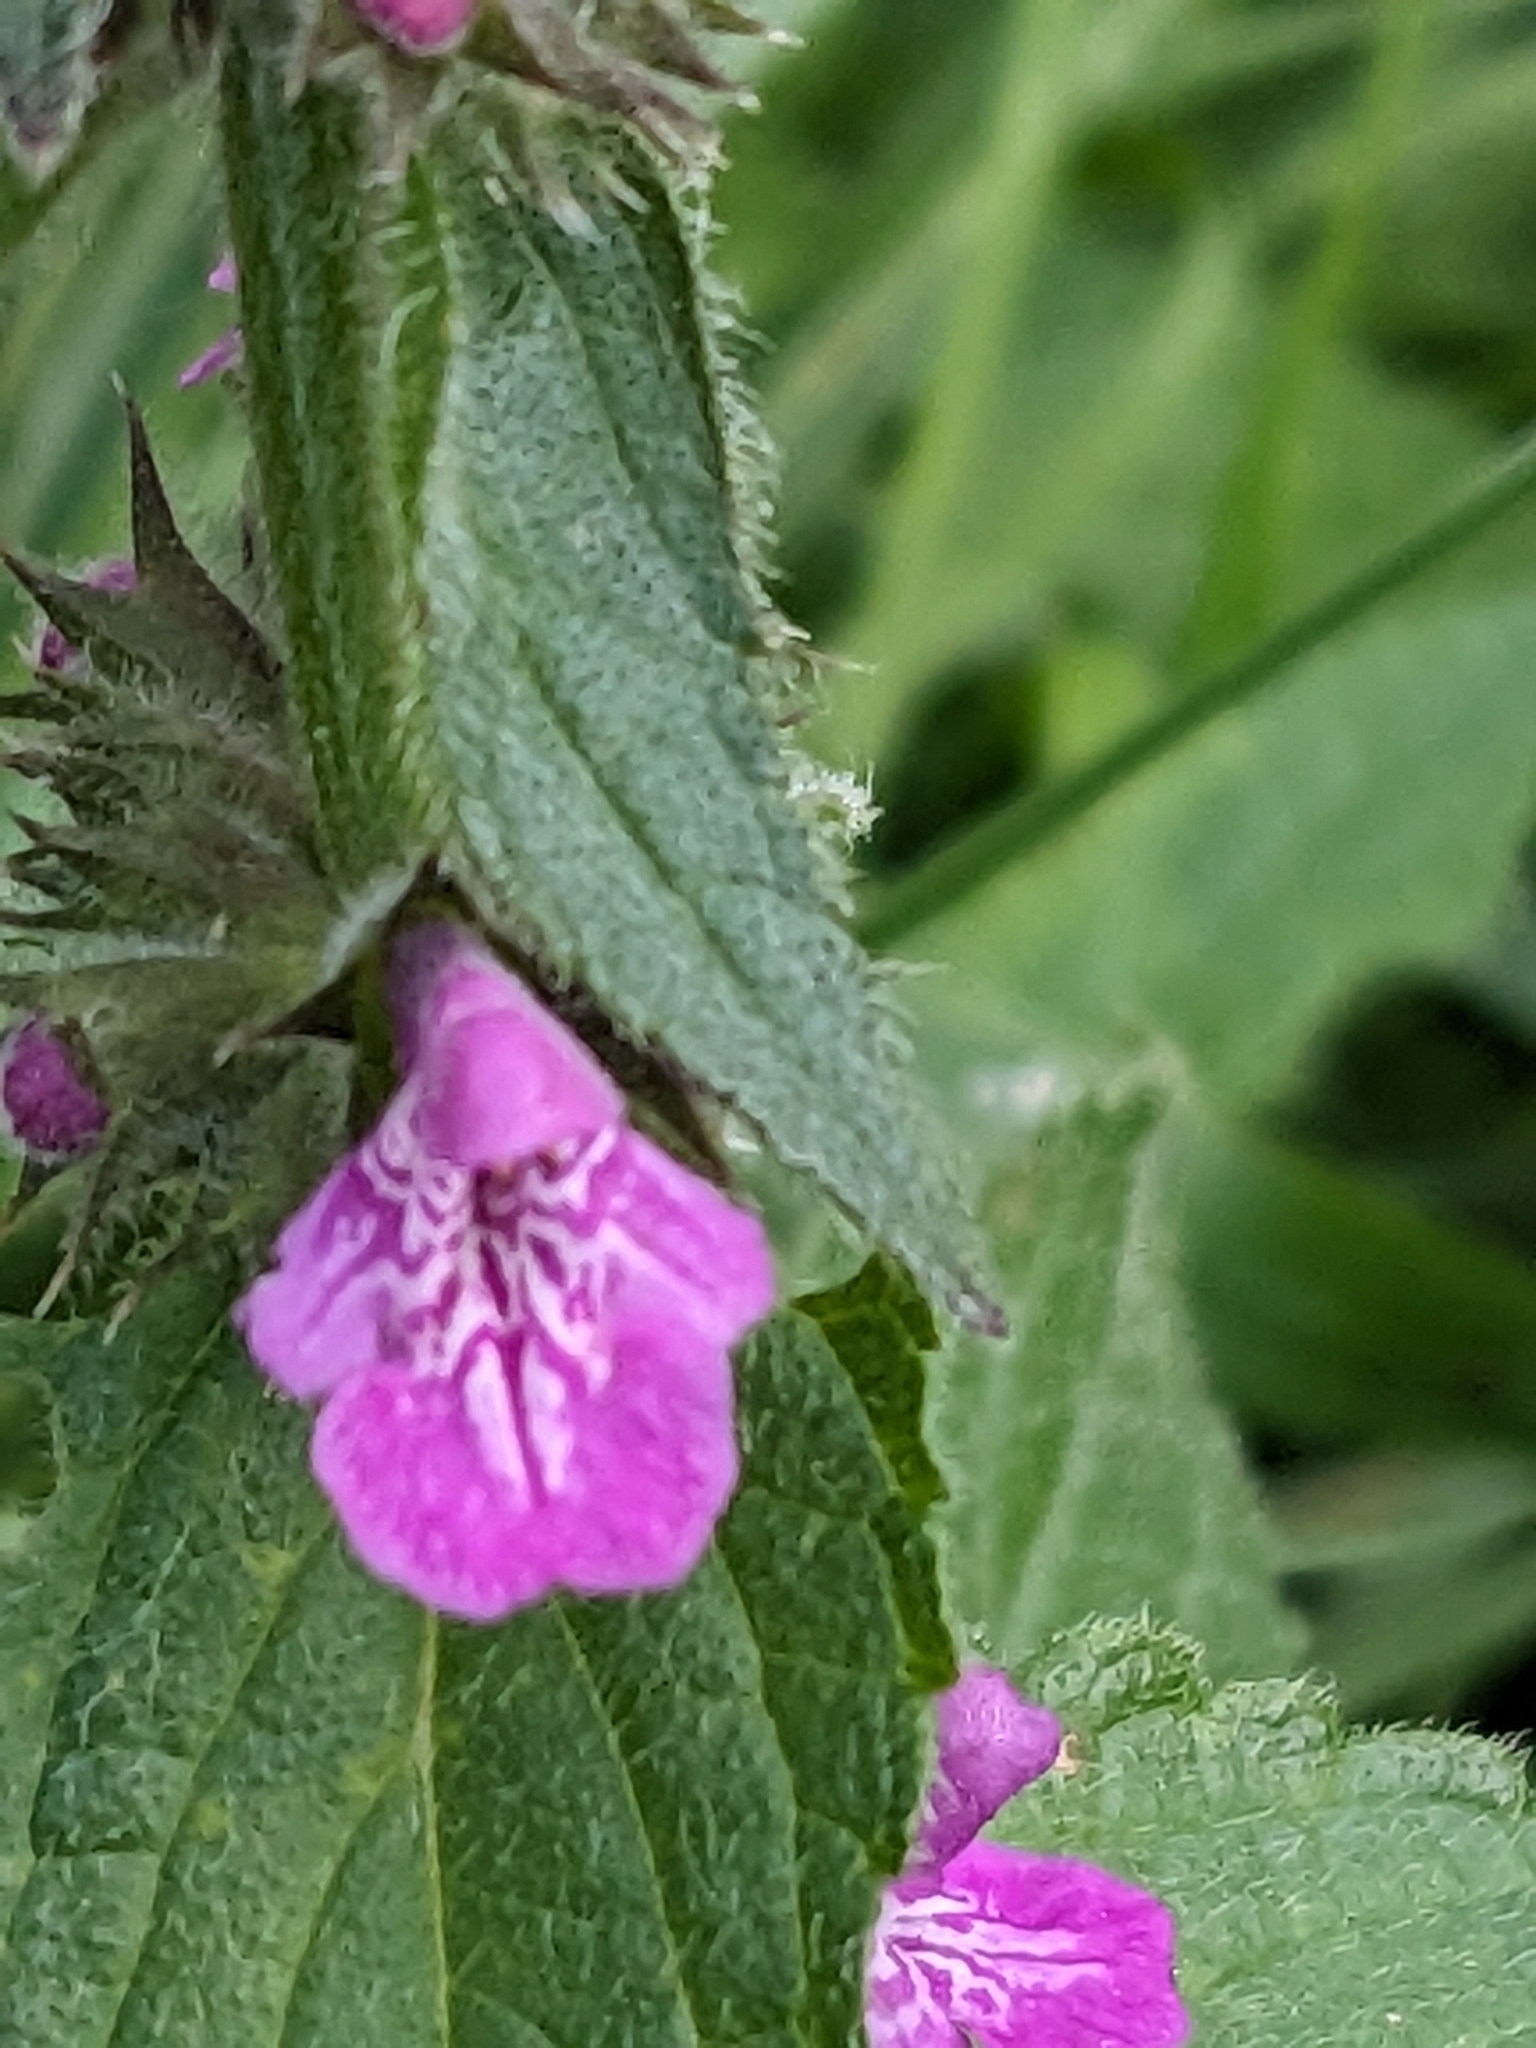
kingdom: Plantae
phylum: Tracheophyta
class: Magnoliopsida
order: Lamiales
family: Lamiaceae
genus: Stachys
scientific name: Stachys palustris
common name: Marsh woundwort
